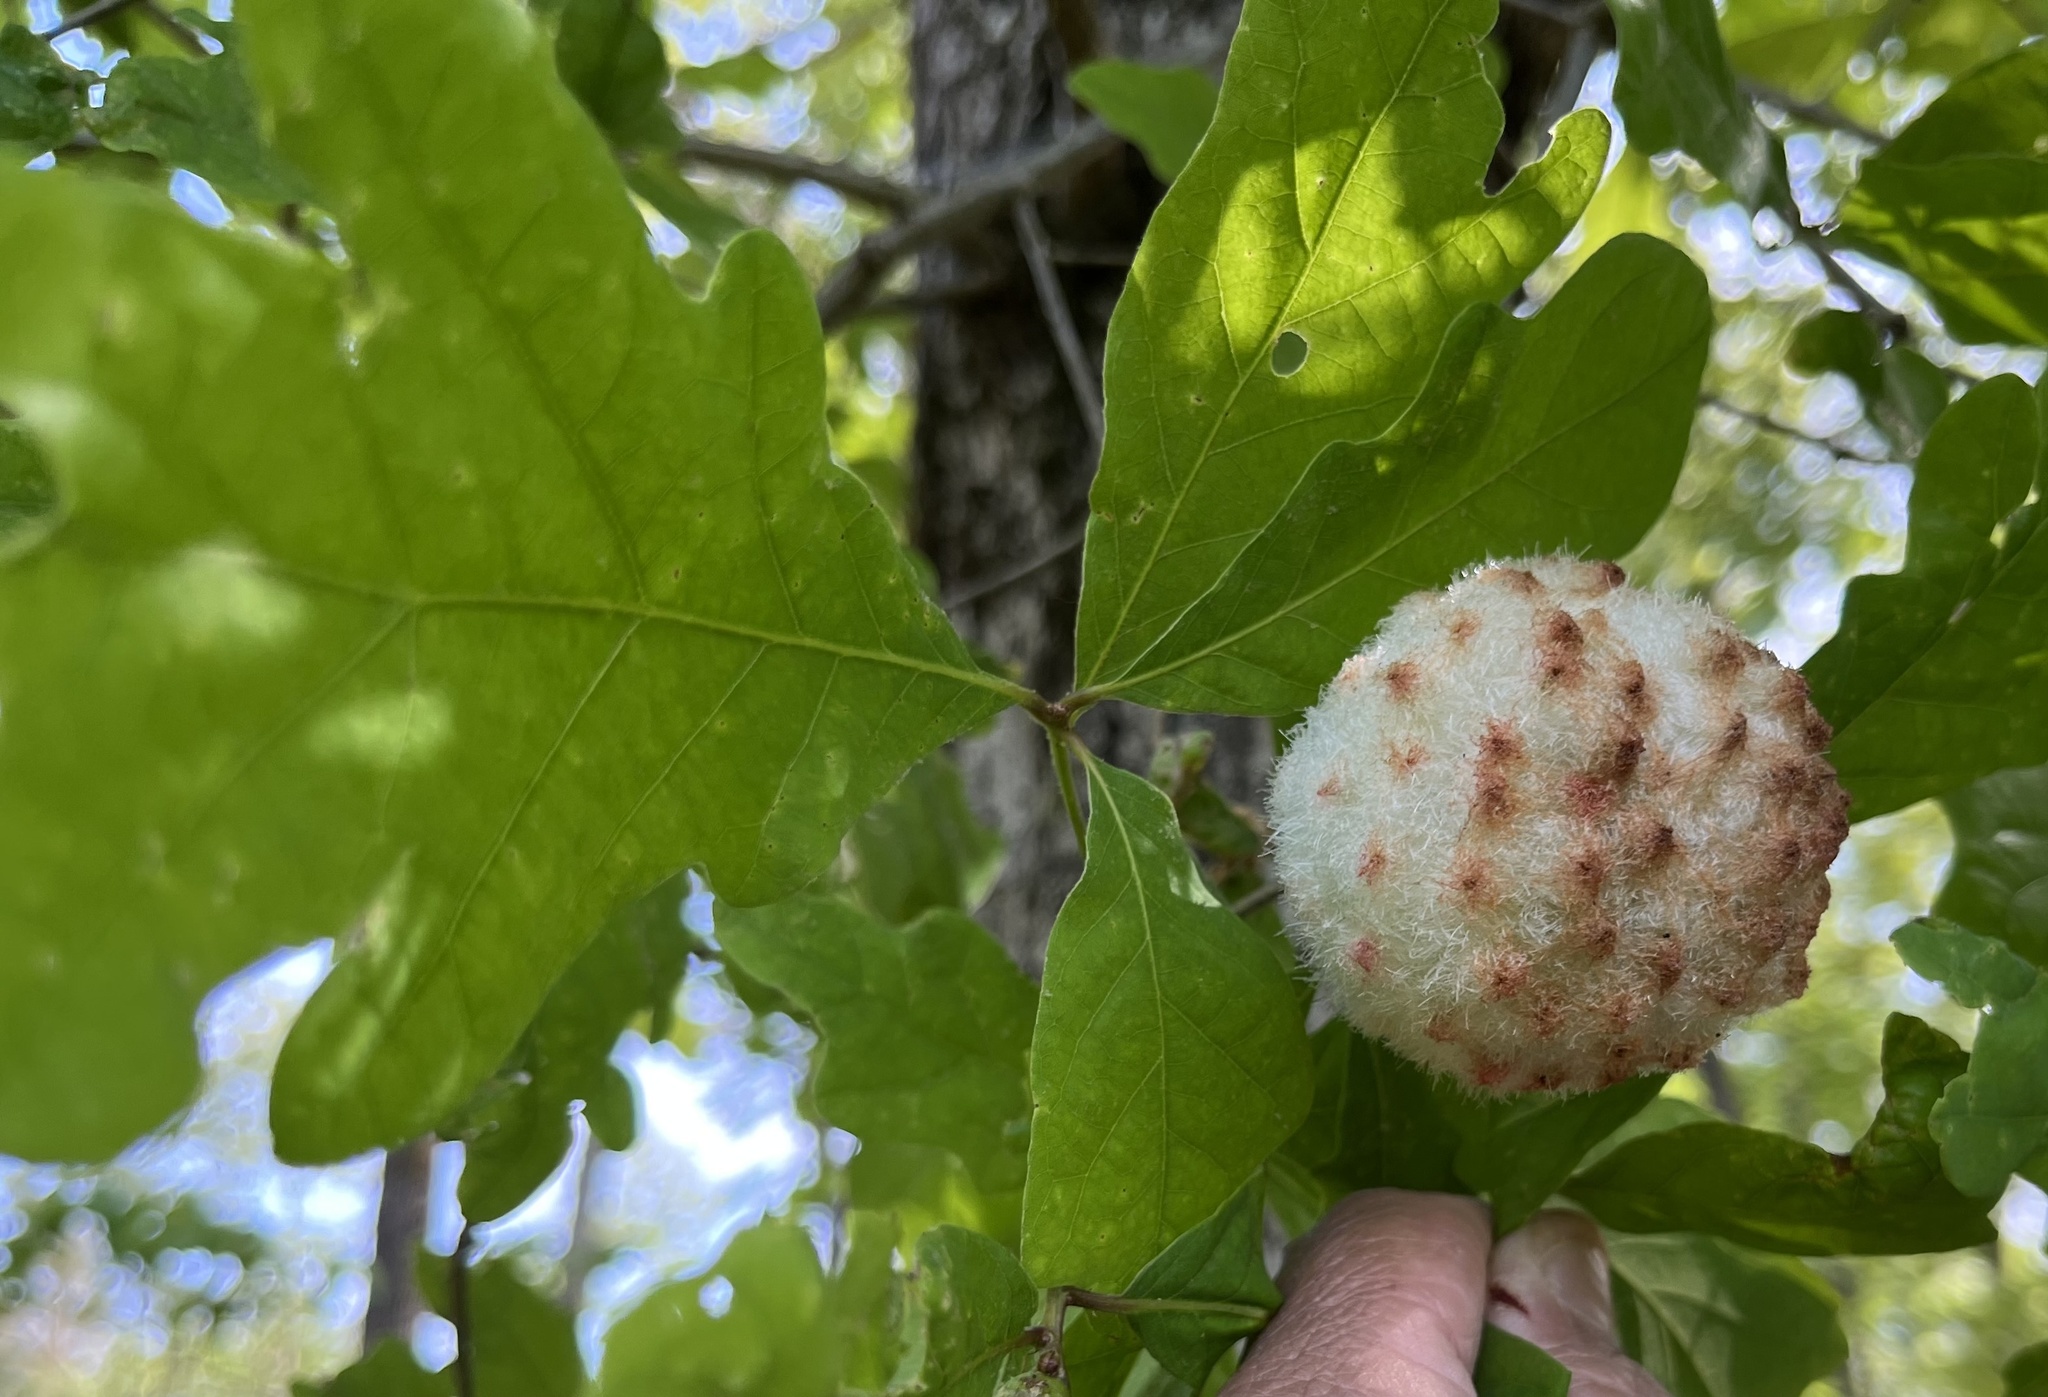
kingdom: Animalia
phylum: Arthropoda
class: Insecta
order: Hymenoptera
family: Cynipidae
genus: Callirhytis
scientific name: Callirhytis
